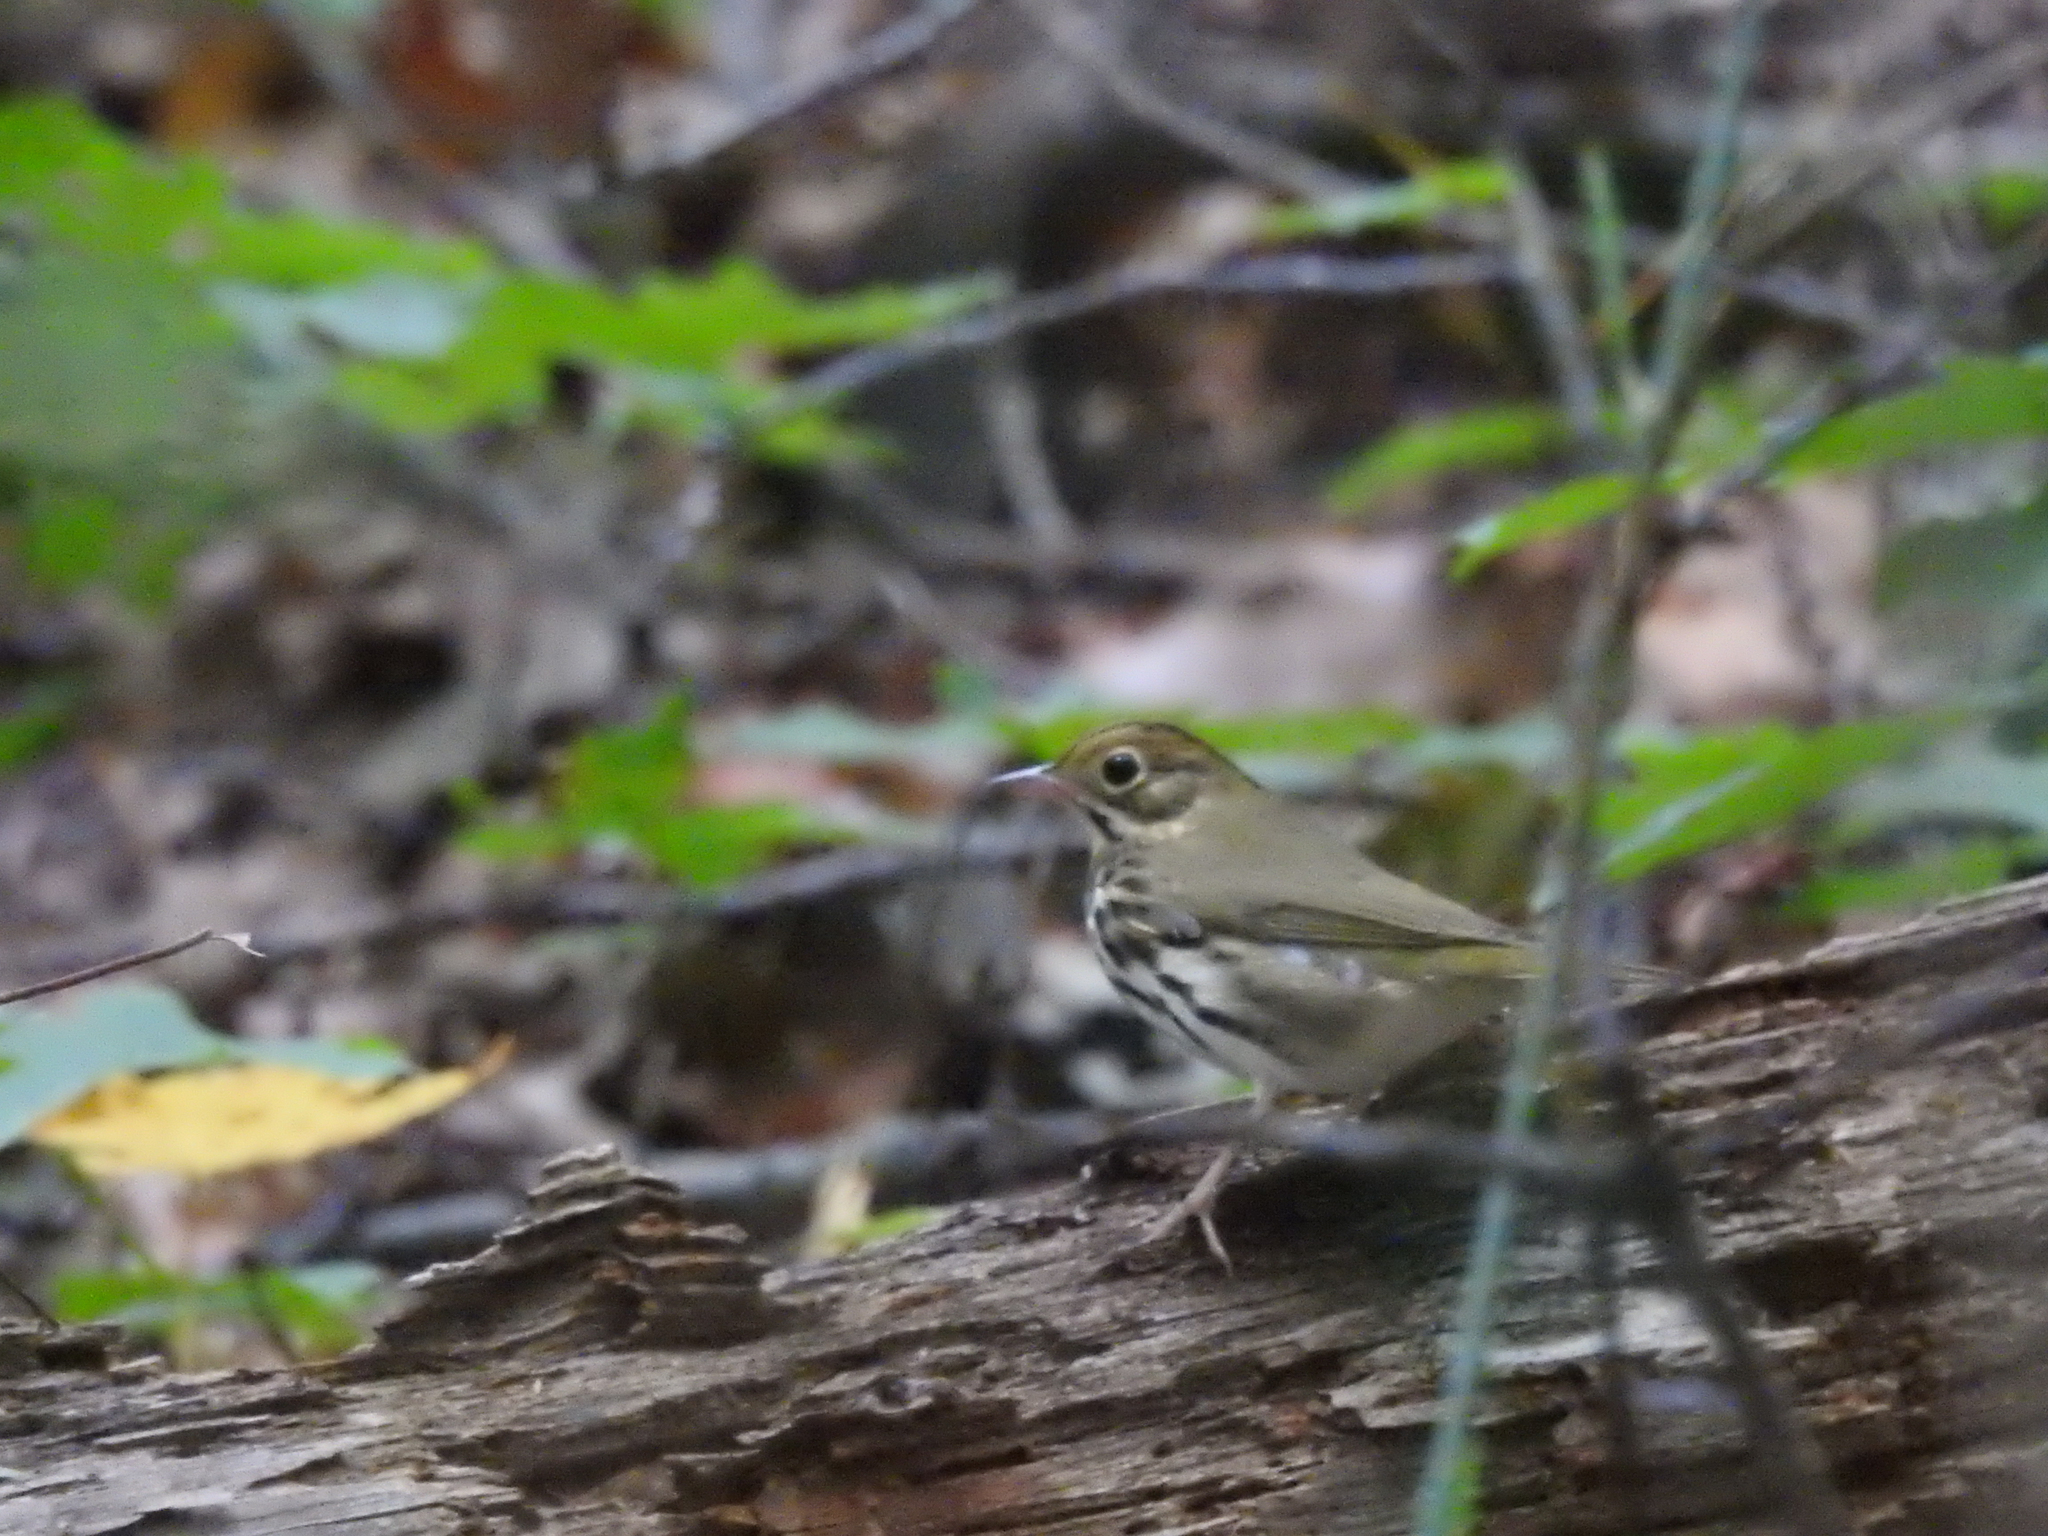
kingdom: Animalia
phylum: Chordata
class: Aves
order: Passeriformes
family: Parulidae
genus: Seiurus
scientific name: Seiurus aurocapilla
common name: Ovenbird
